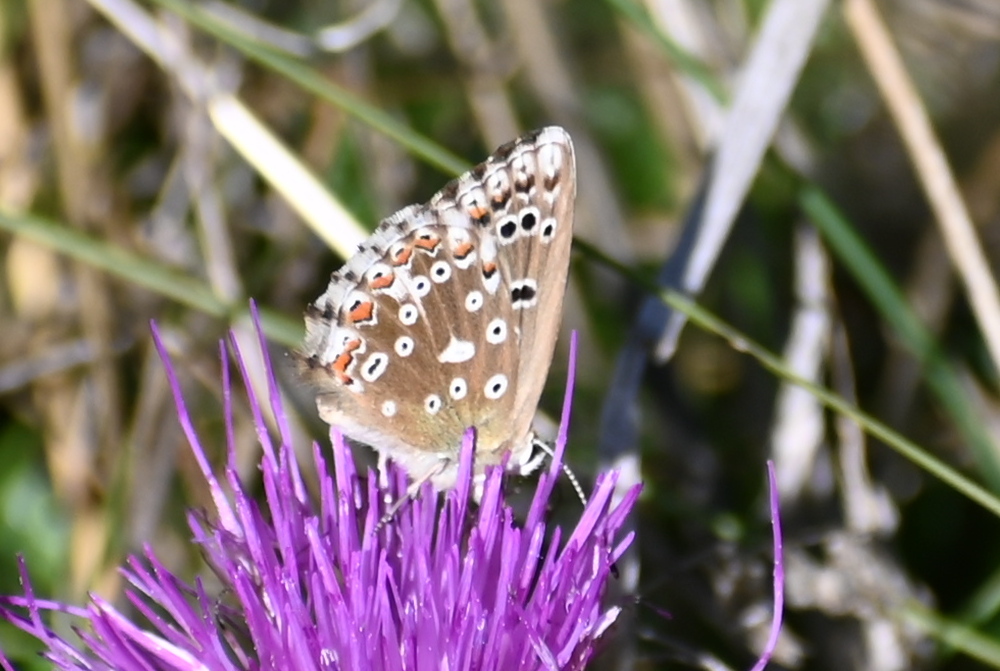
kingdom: Animalia
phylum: Arthropoda
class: Insecta
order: Lepidoptera
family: Lycaenidae
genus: Lysandra
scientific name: Lysandra coridon
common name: Chalkhill blue
